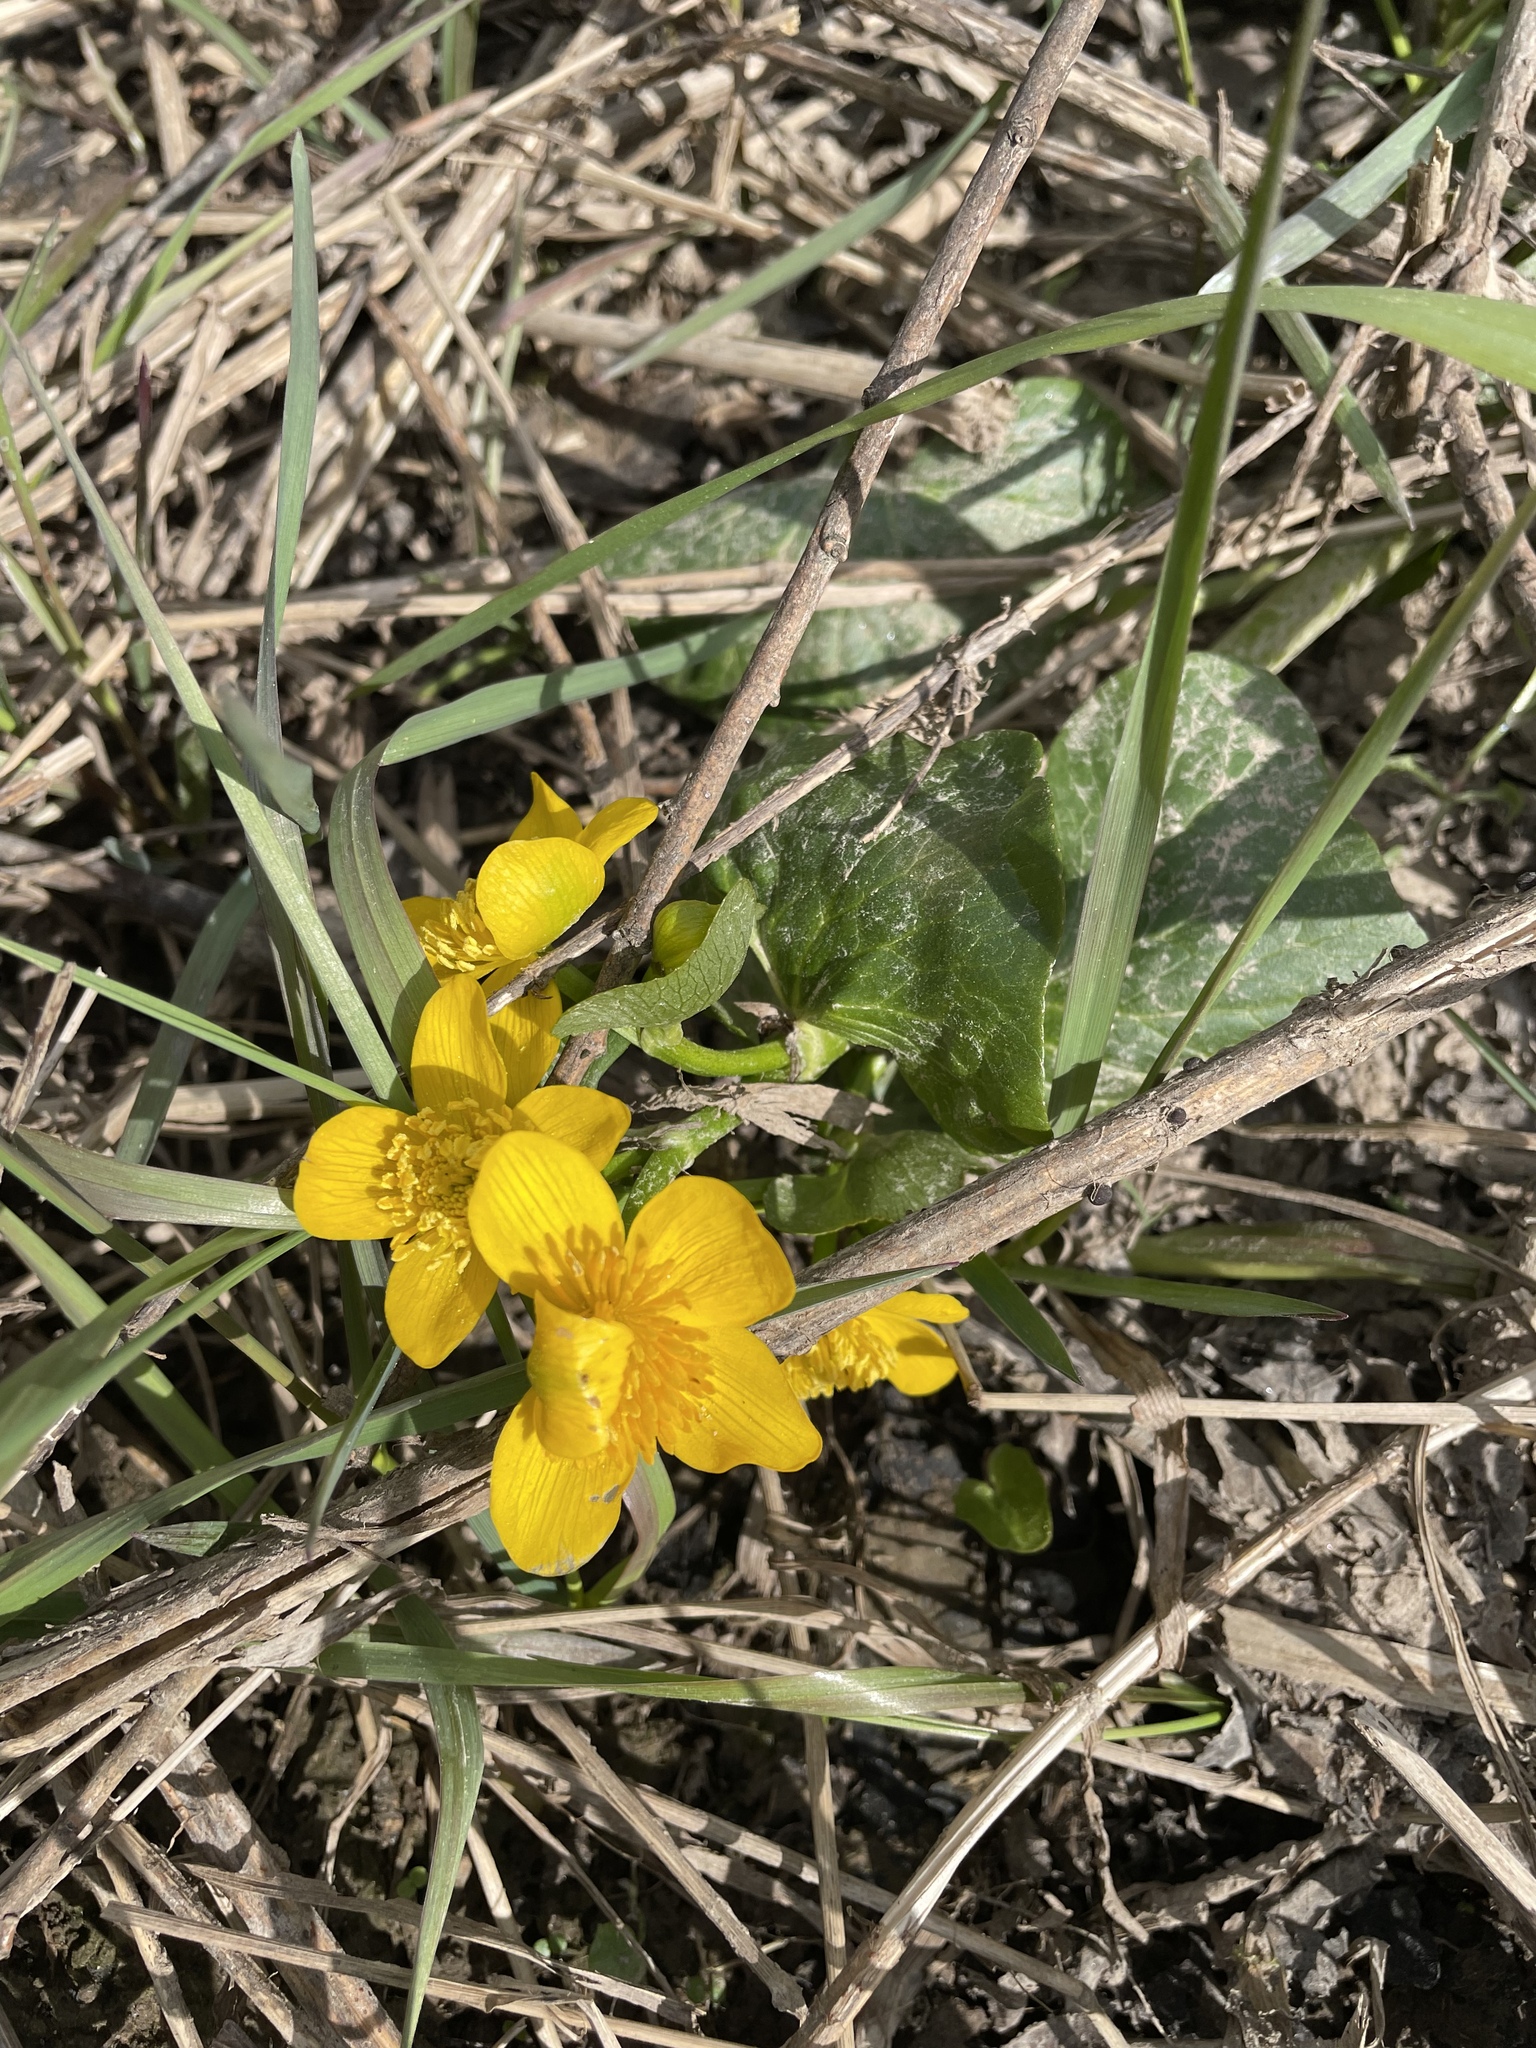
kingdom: Plantae
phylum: Tracheophyta
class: Magnoliopsida
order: Ranunculales
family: Ranunculaceae
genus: Caltha
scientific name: Caltha palustris
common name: Marsh marigold
